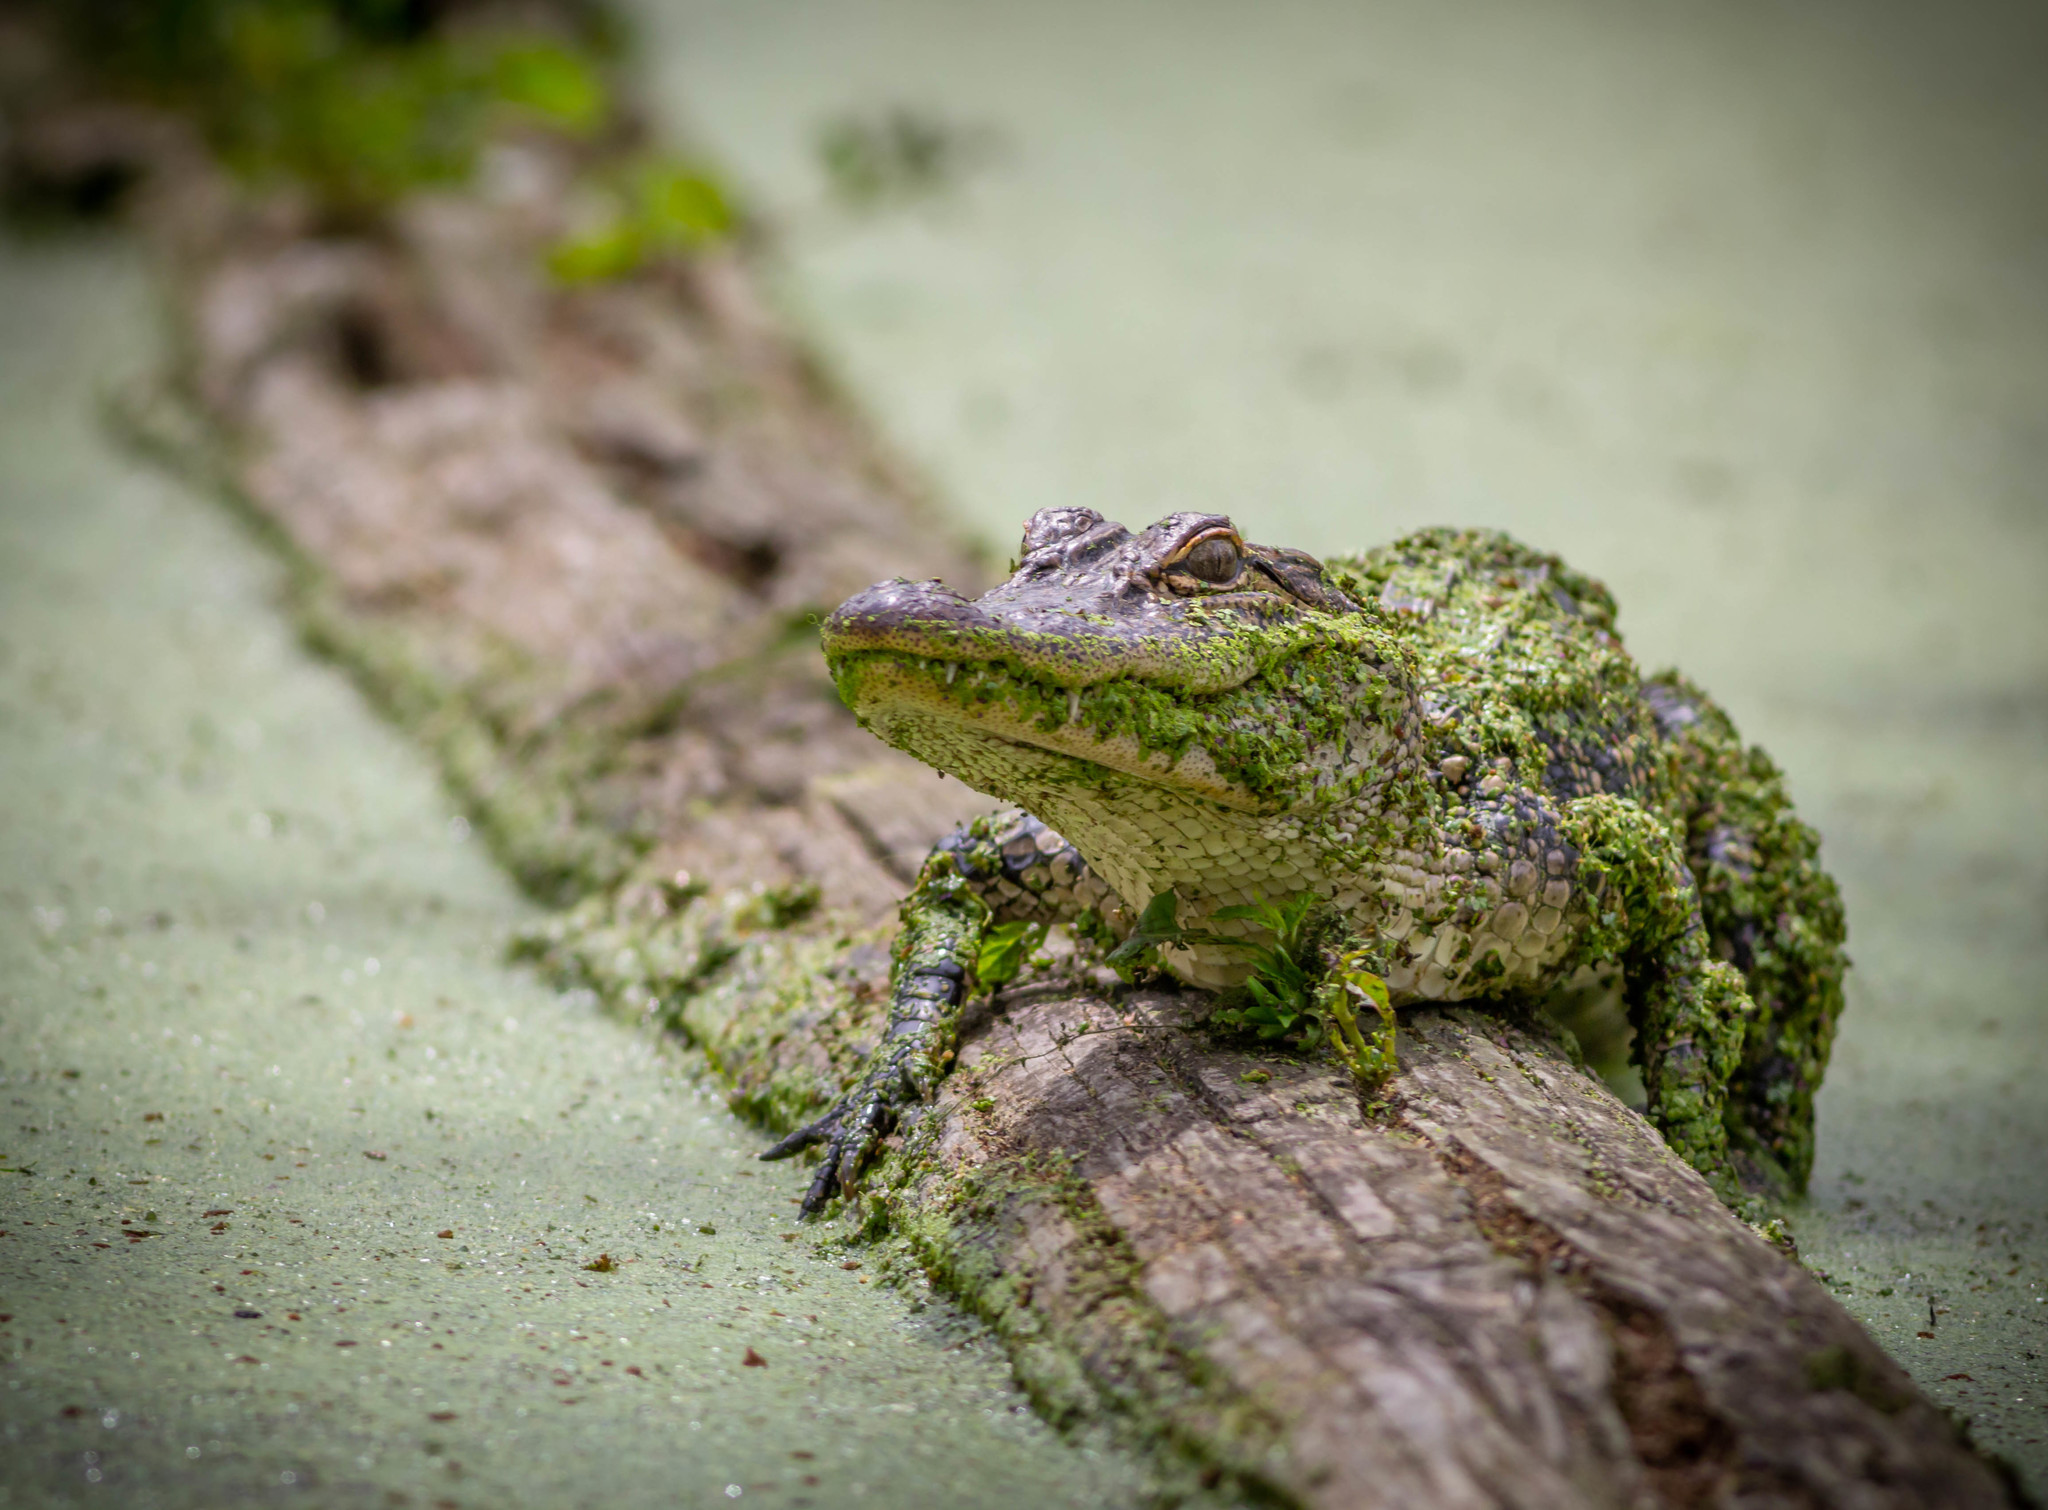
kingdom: Animalia
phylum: Chordata
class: Crocodylia
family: Alligatoridae
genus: Alligator
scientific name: Alligator mississippiensis
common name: American alligator
